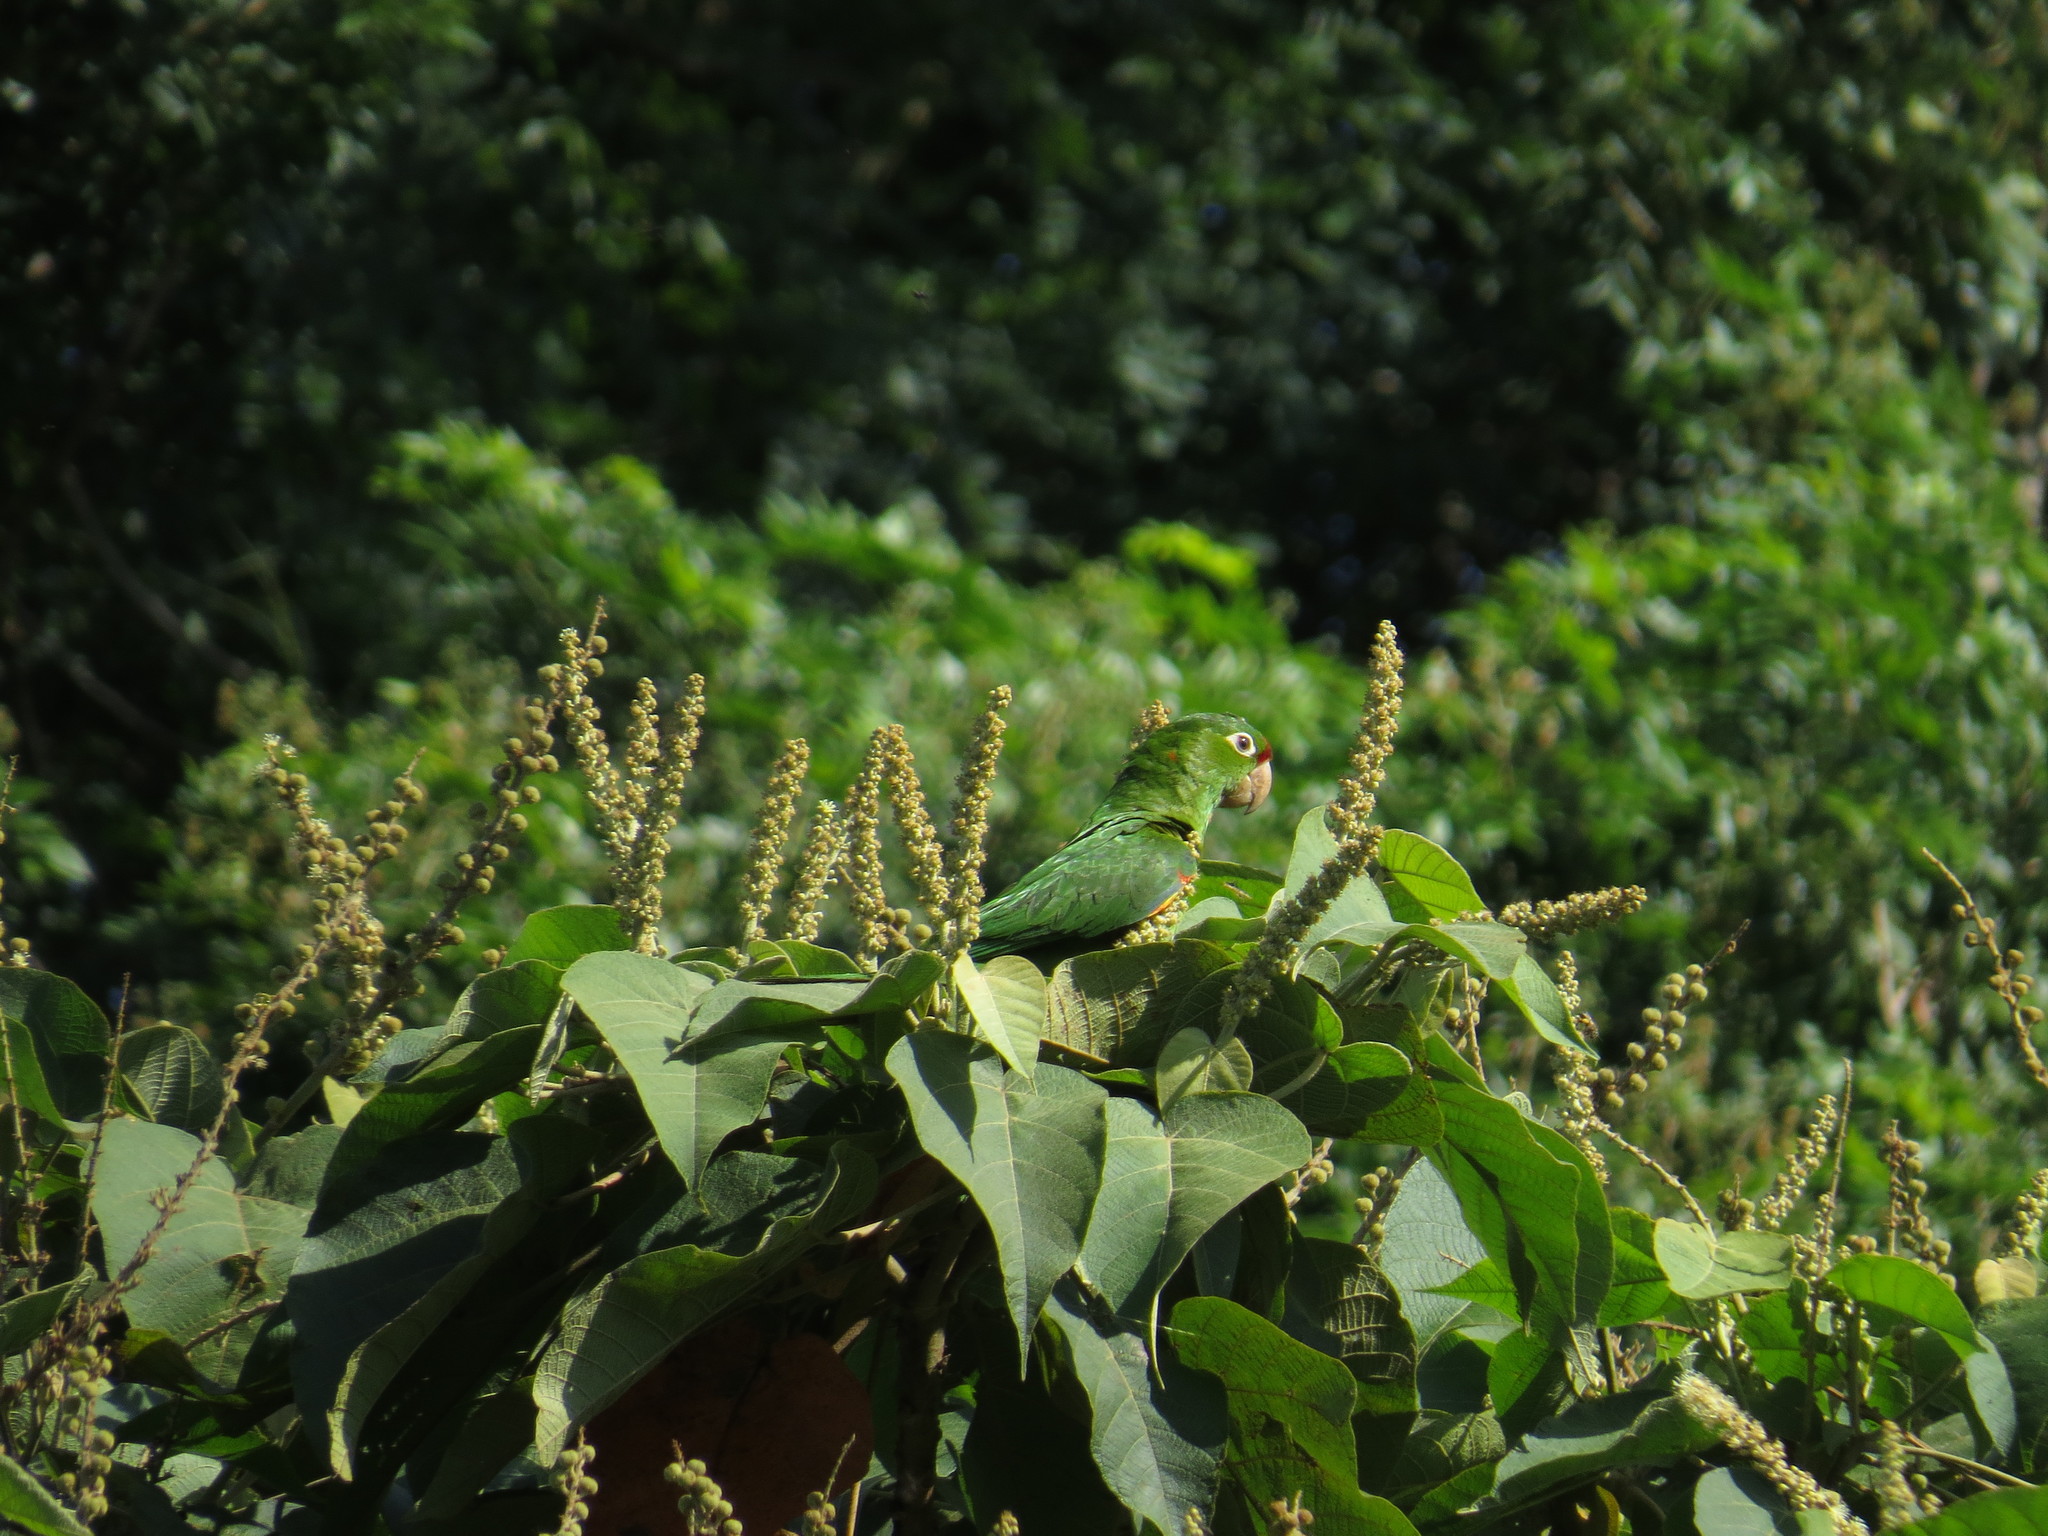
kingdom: Animalia
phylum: Chordata
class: Aves
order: Psittaciformes
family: Psittacidae
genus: Aratinga
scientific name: Aratinga finschi
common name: Crimson-fronted parakeet
